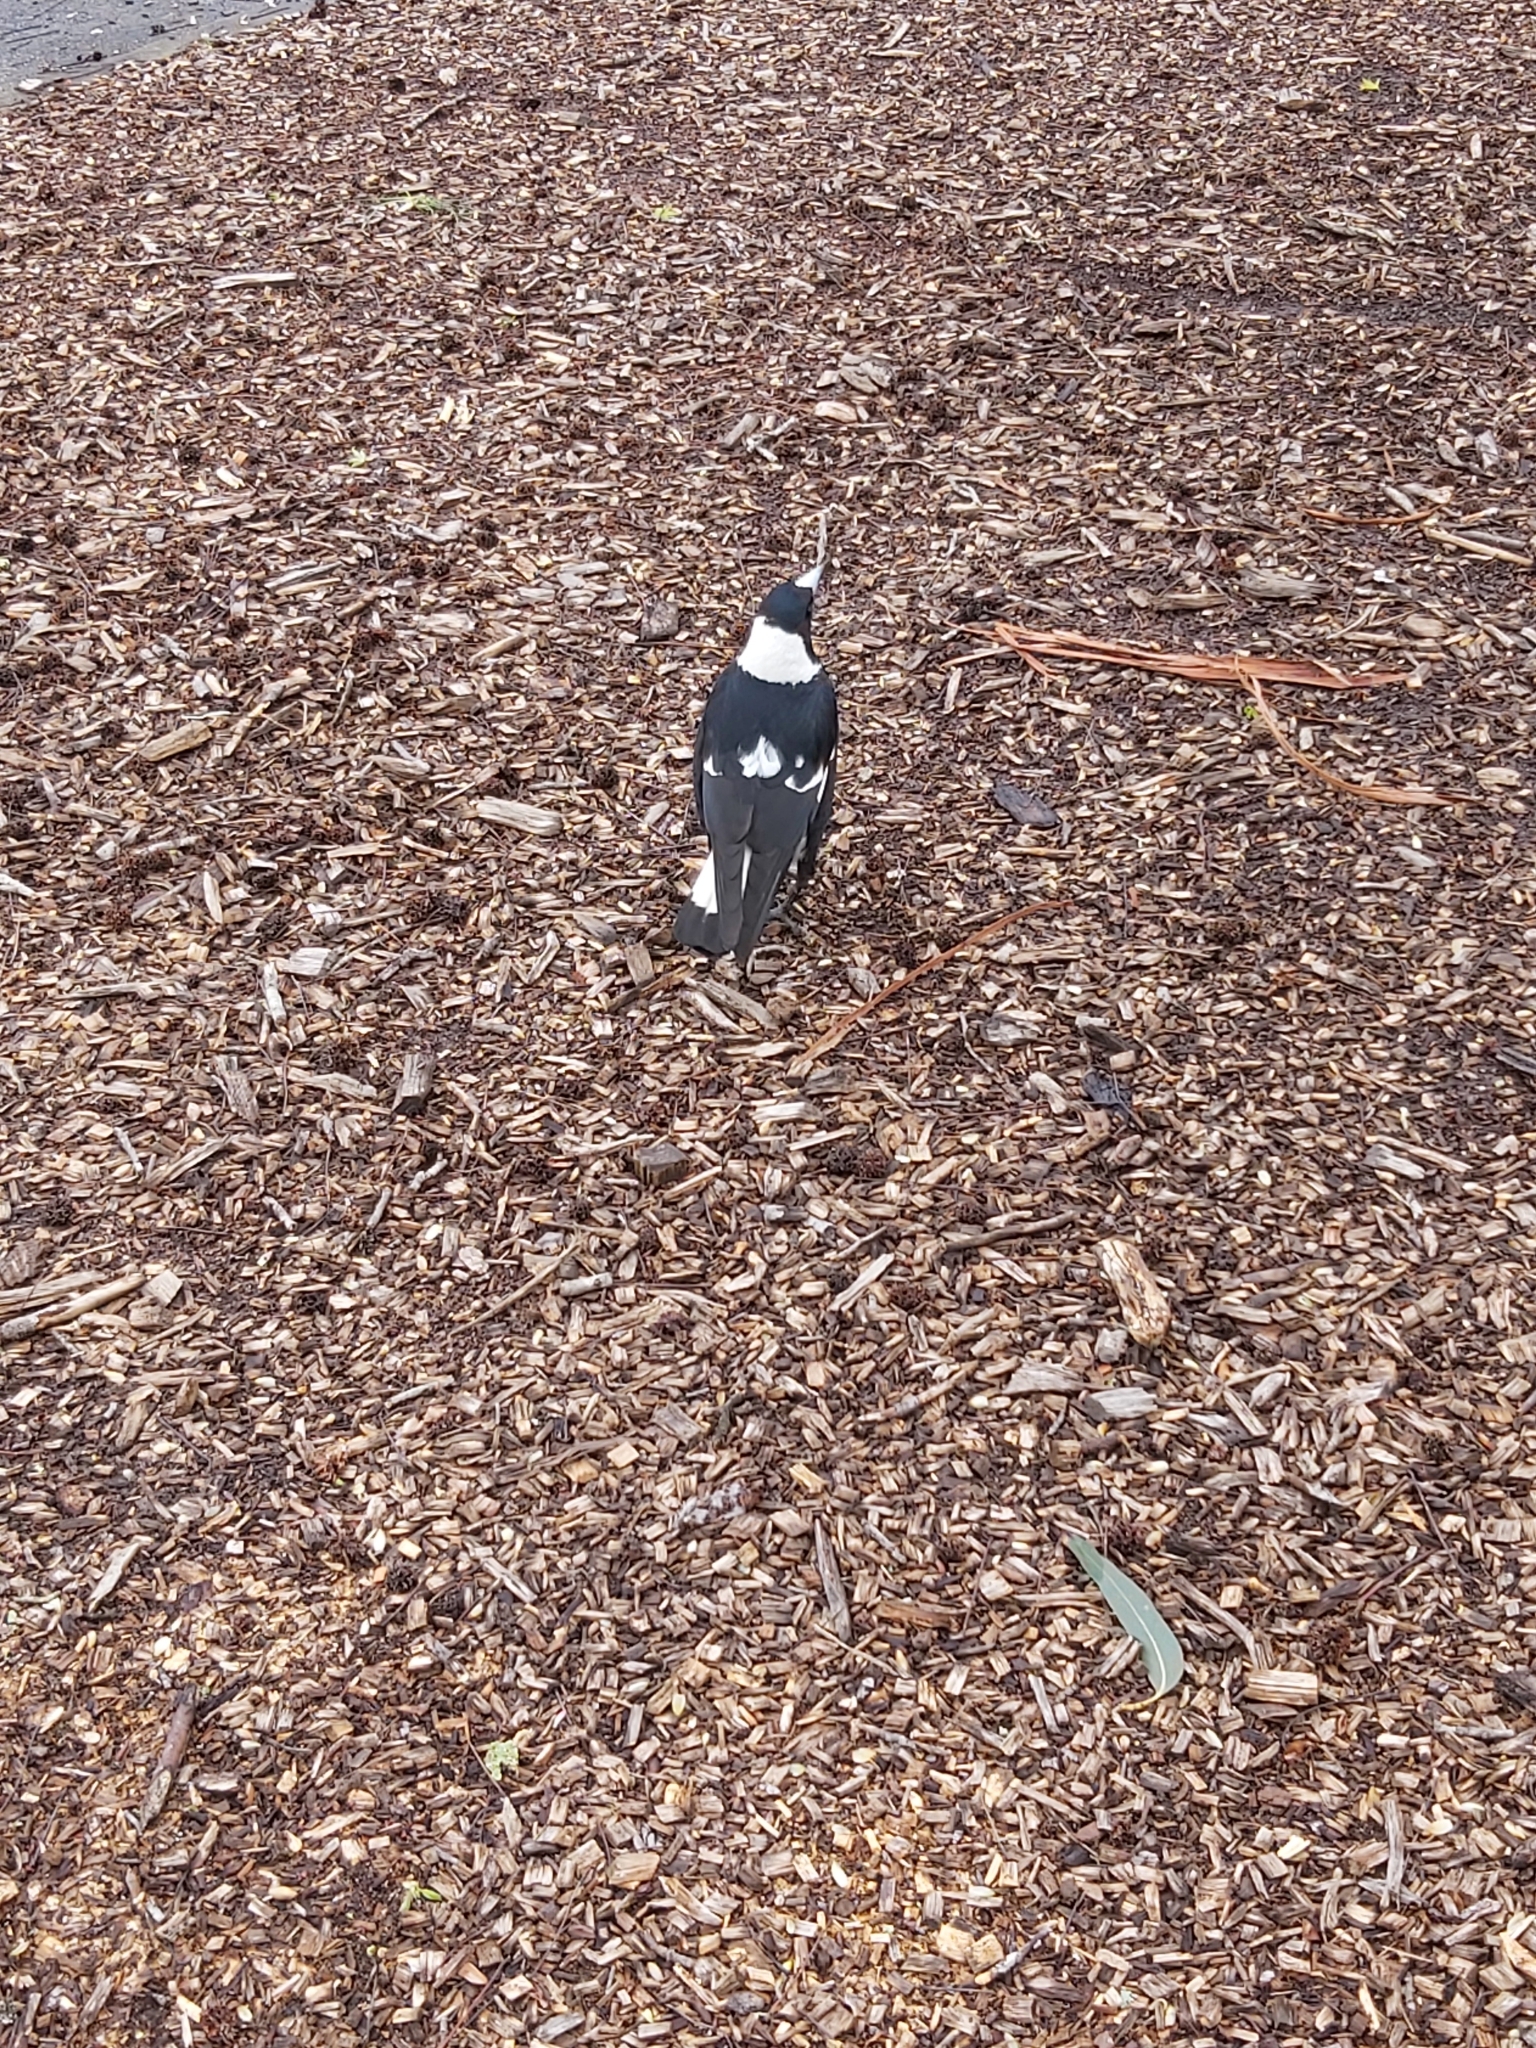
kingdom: Animalia
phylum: Chordata
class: Aves
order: Passeriformes
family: Cracticidae
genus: Gymnorhina
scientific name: Gymnorhina tibicen
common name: Australian magpie
